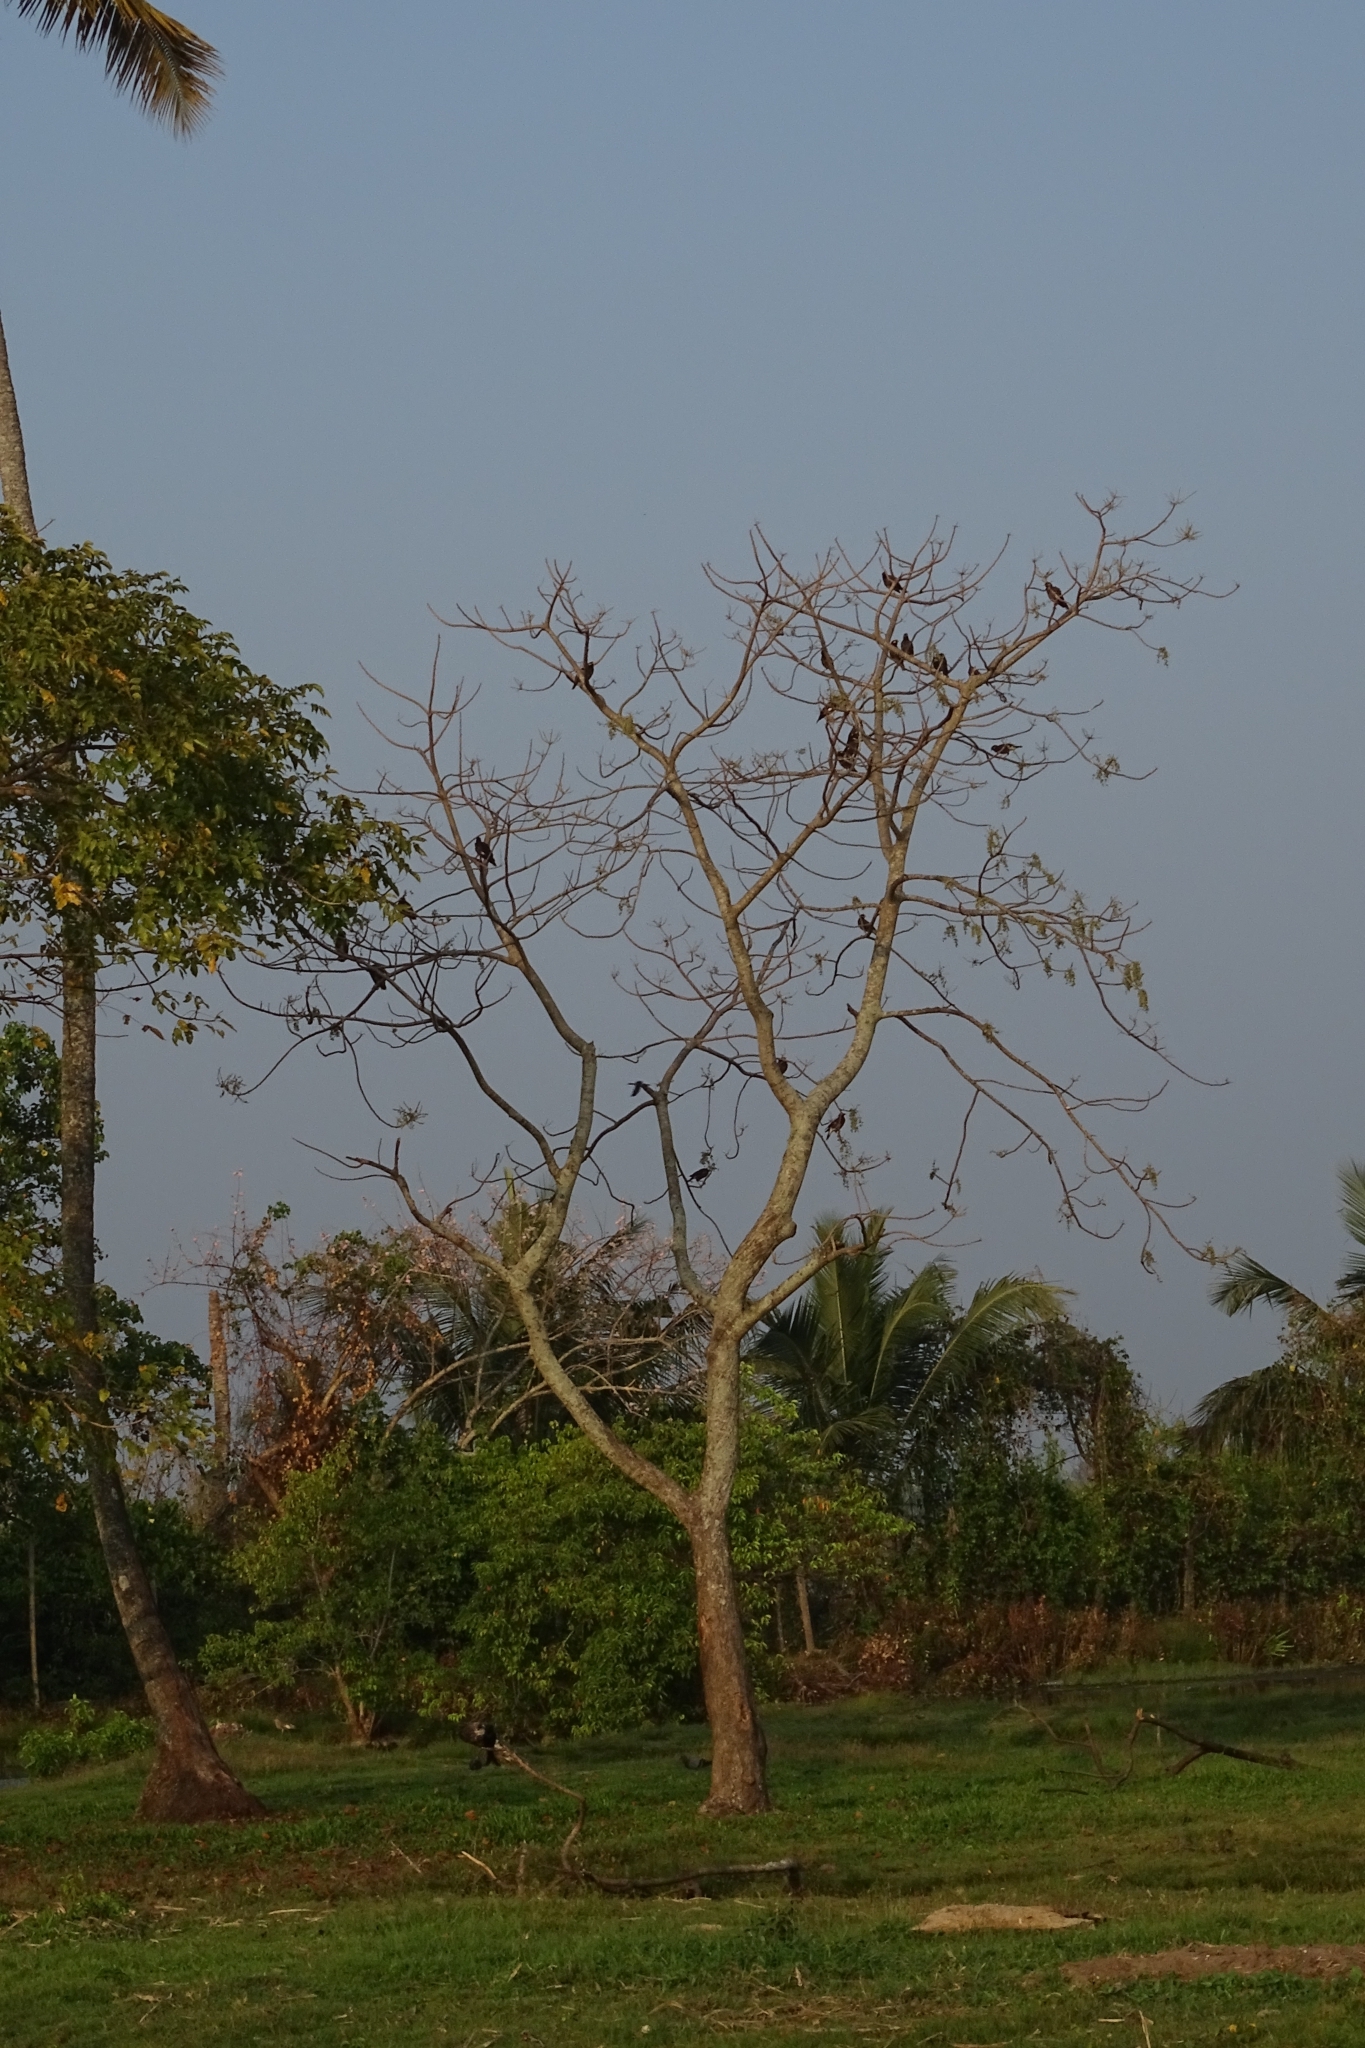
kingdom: Animalia
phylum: Chordata
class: Aves
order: Passeriformes
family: Sturnidae
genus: Acridotheres
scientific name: Acridotheres tristis
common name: Common myna
